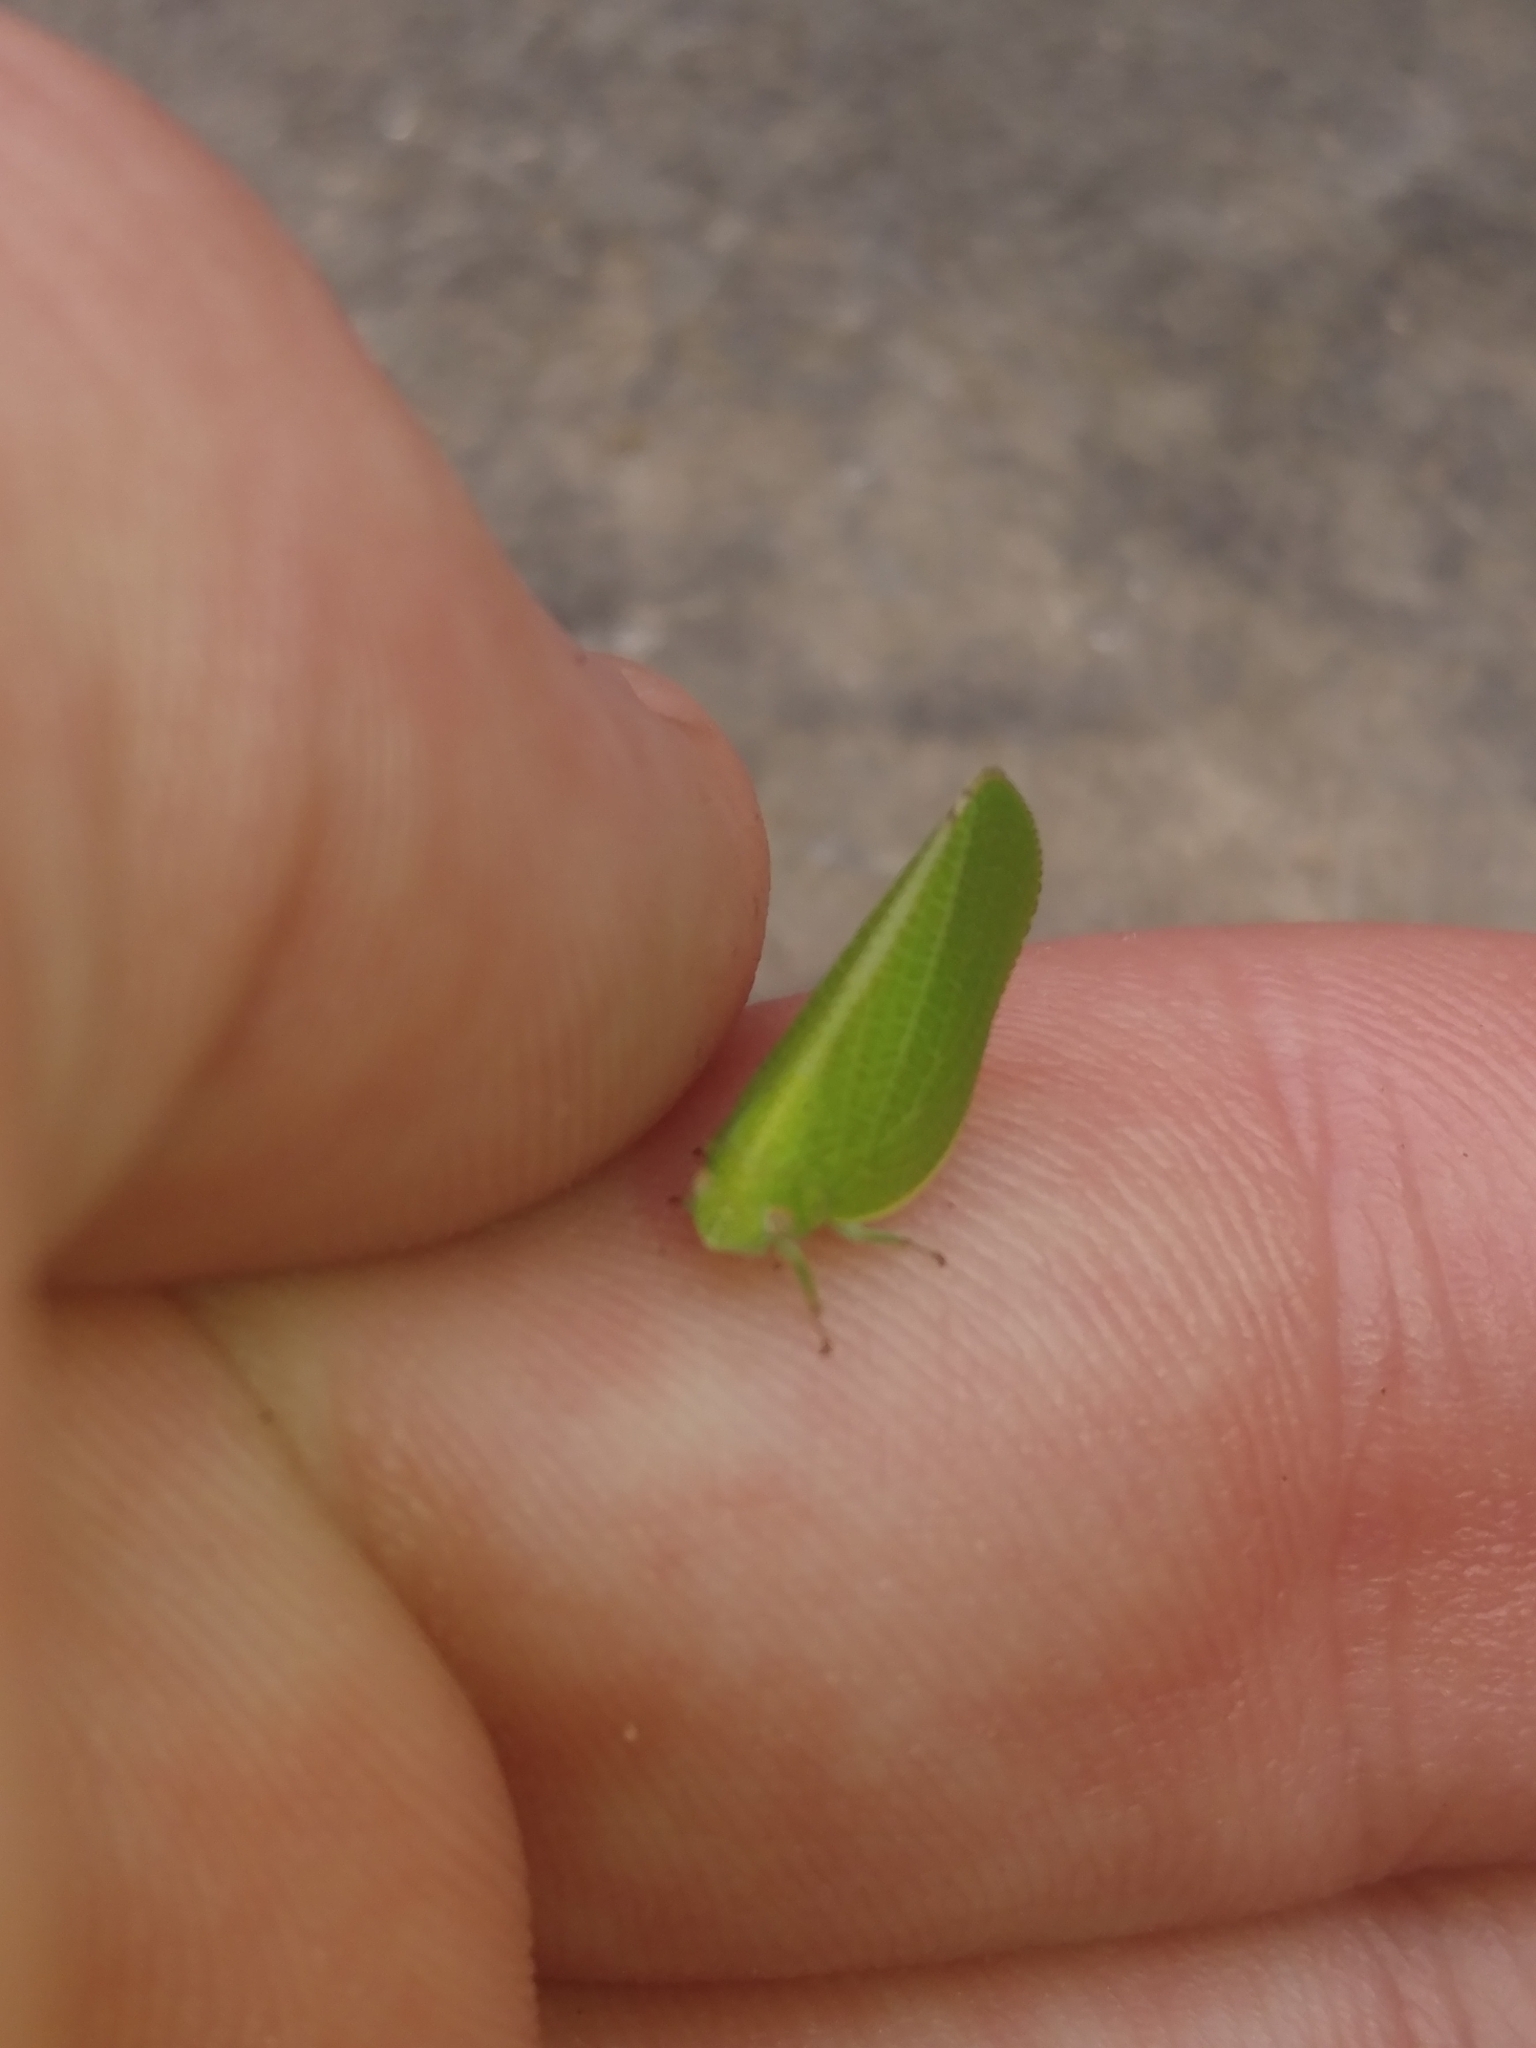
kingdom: Animalia
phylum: Arthropoda
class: Insecta
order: Hemiptera
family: Acanaloniidae
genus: Acanalonia
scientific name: Acanalonia conica
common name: Green cone-headed planthopper
